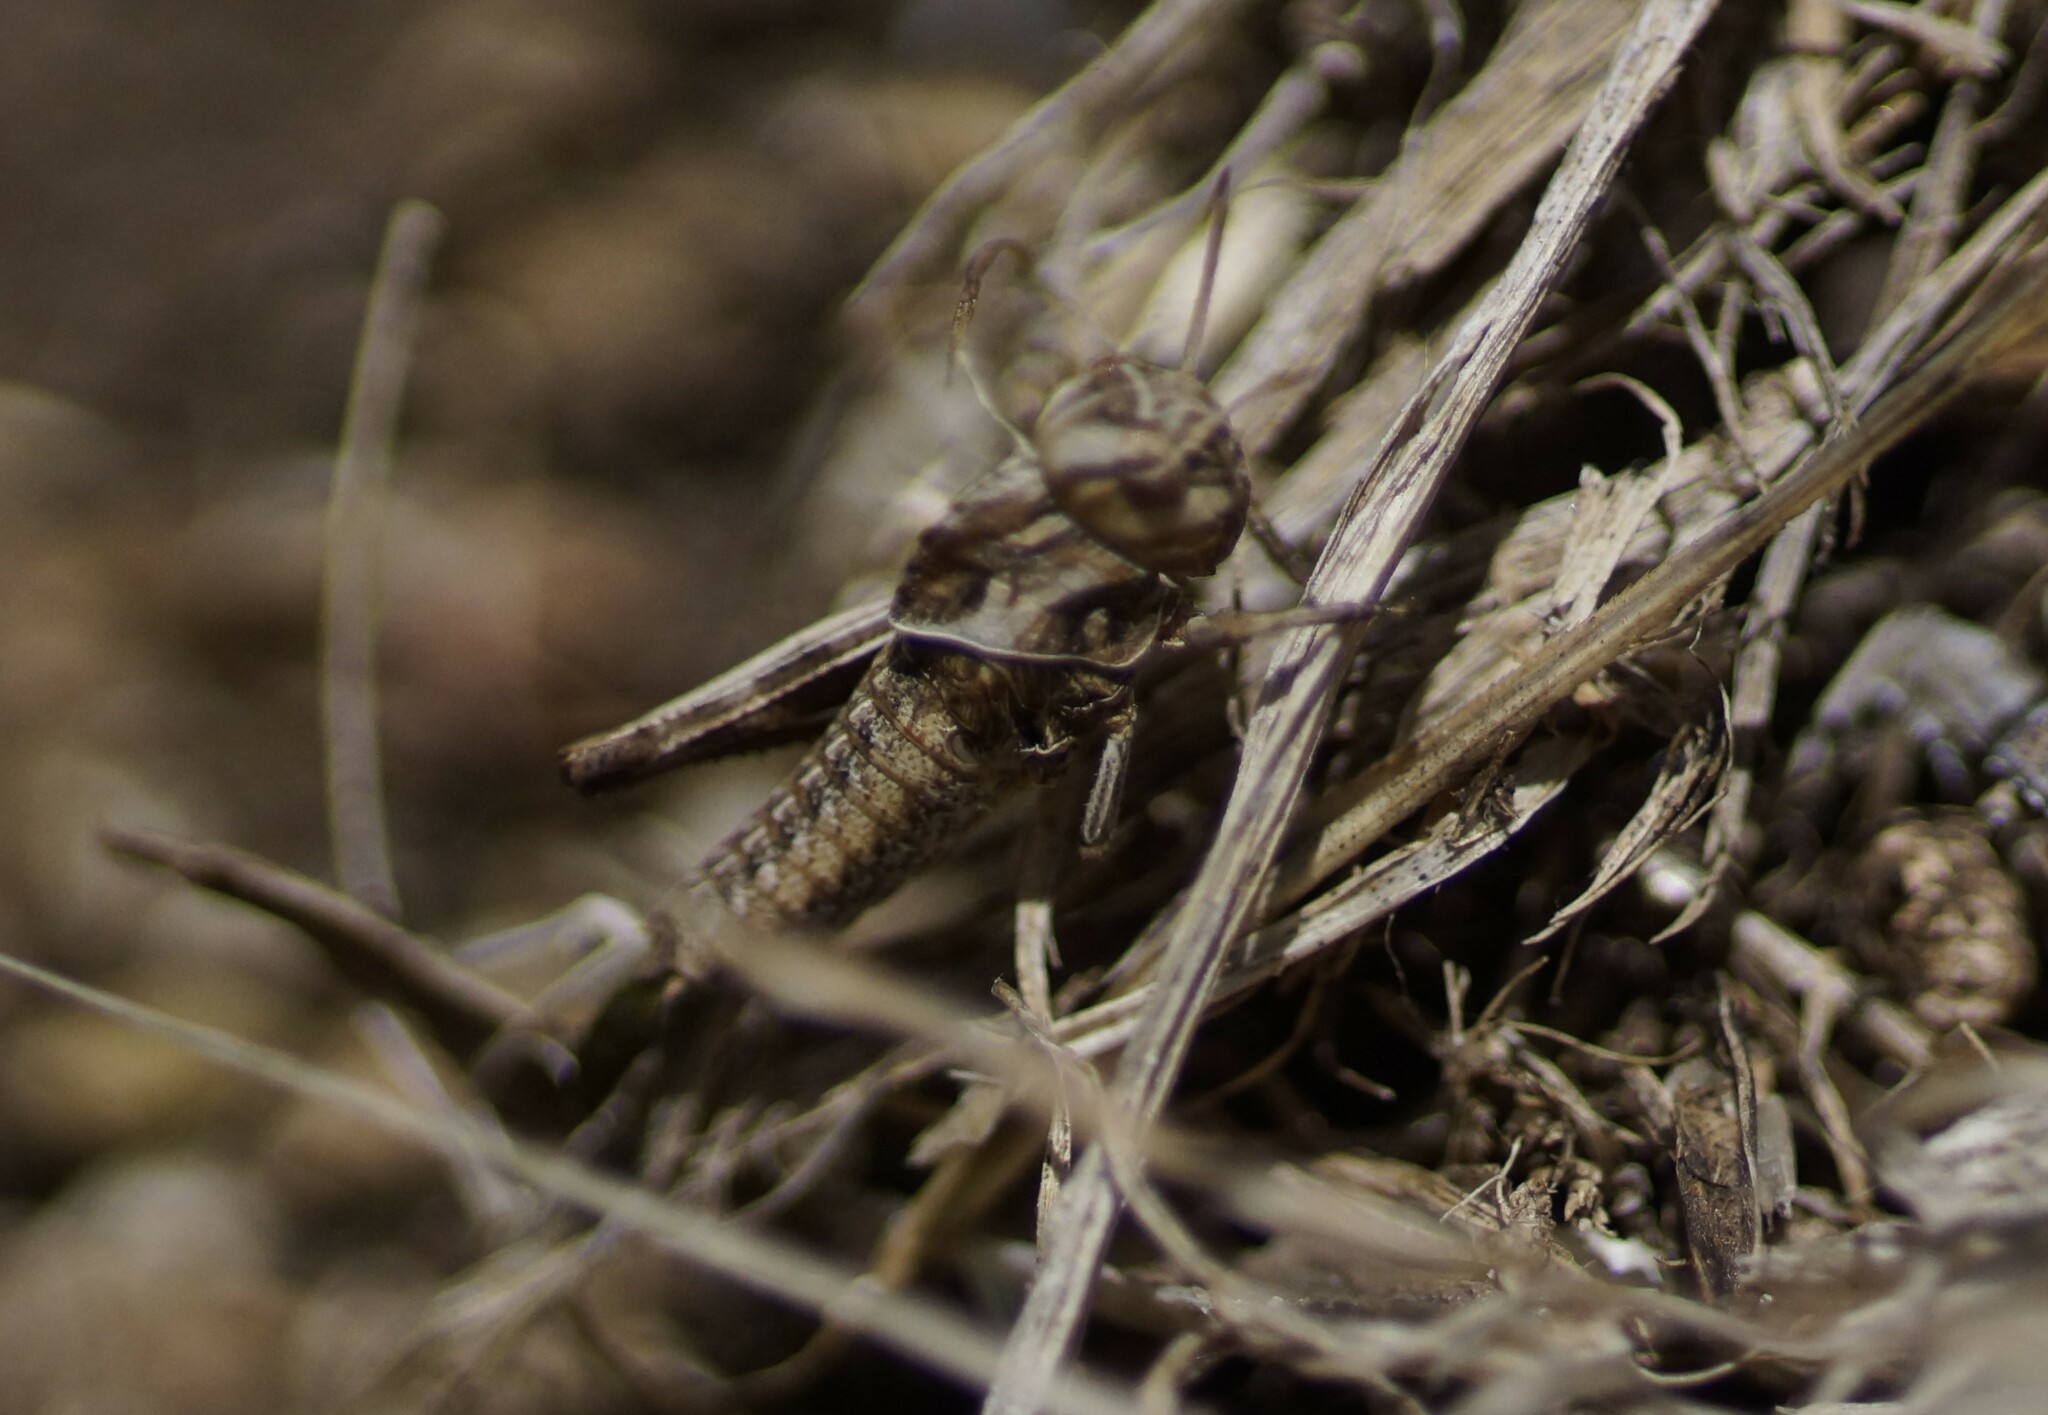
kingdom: Animalia
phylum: Arthropoda
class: Insecta
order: Orthoptera
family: Acrididae
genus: Gastrimargus
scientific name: Gastrimargus musicus
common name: Yellow-winged locust
